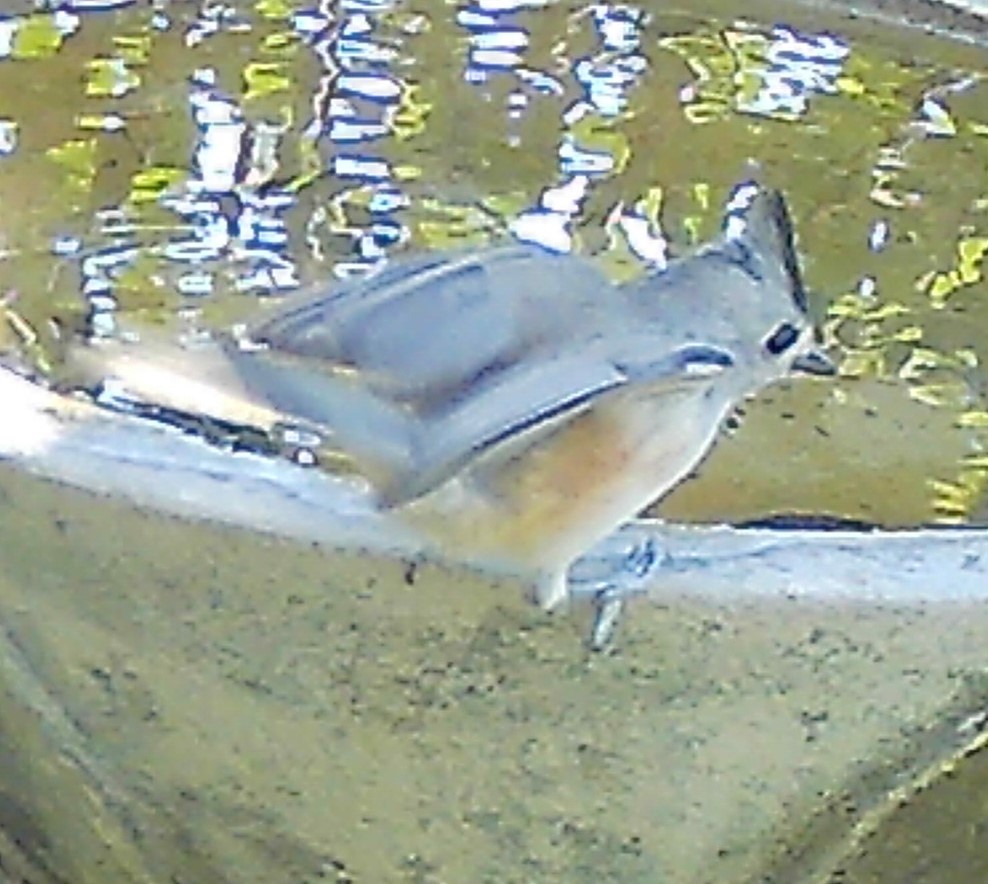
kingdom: Animalia
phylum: Chordata
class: Aves
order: Passeriformes
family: Paridae
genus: Baeolophus
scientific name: Baeolophus atricristatus
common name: Black-crested titmouse
